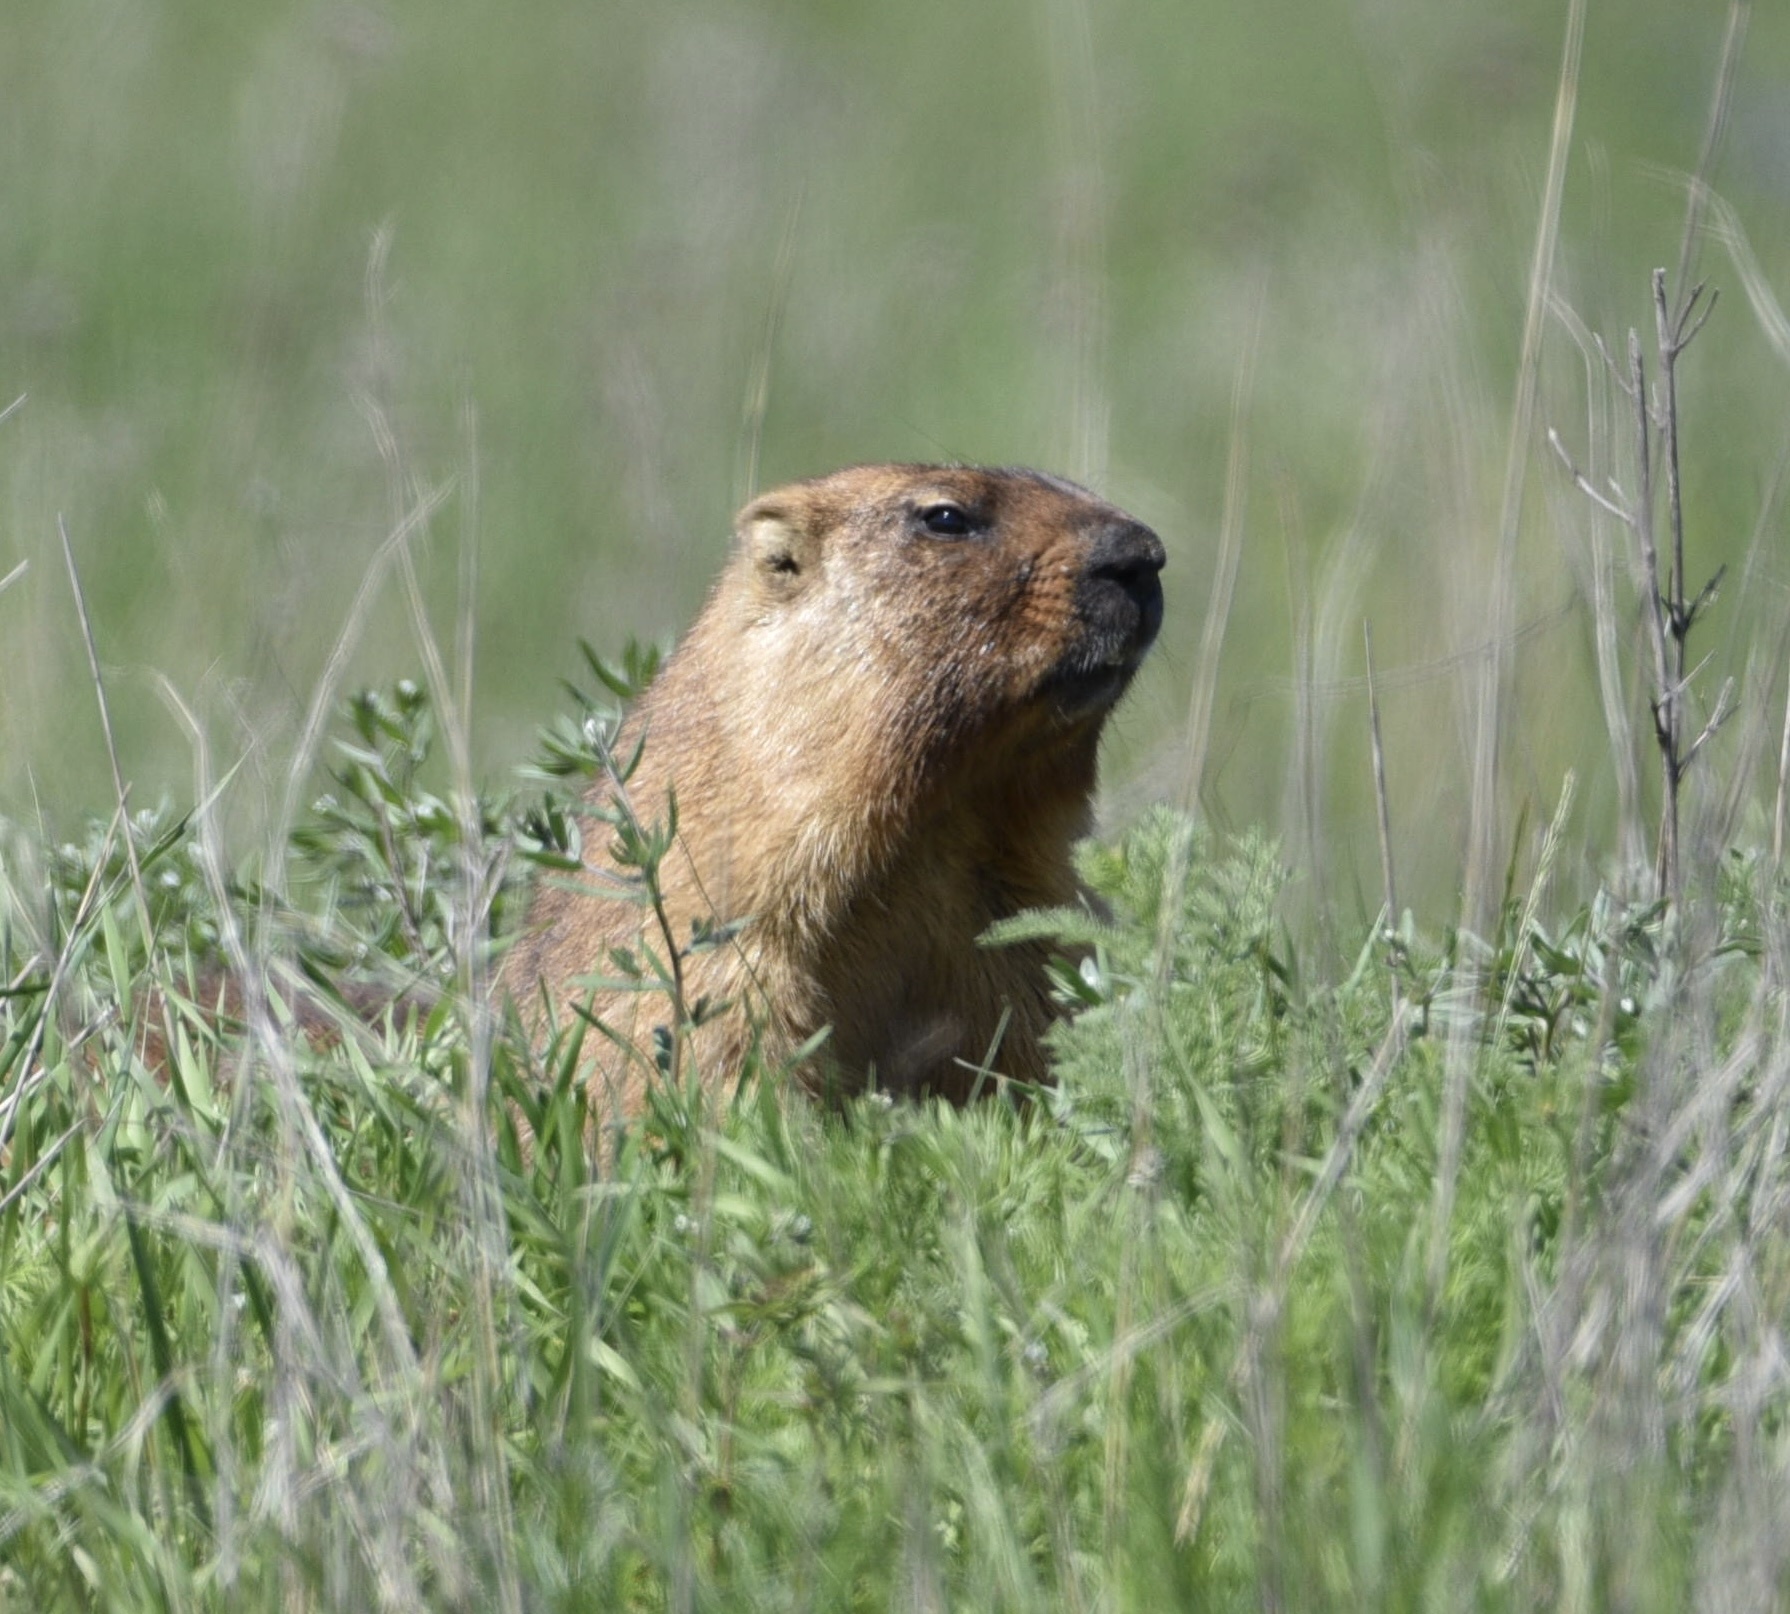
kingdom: Animalia
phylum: Chordata
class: Mammalia
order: Rodentia
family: Sciuridae
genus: Marmota
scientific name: Marmota bobak
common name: Bobak marmot
